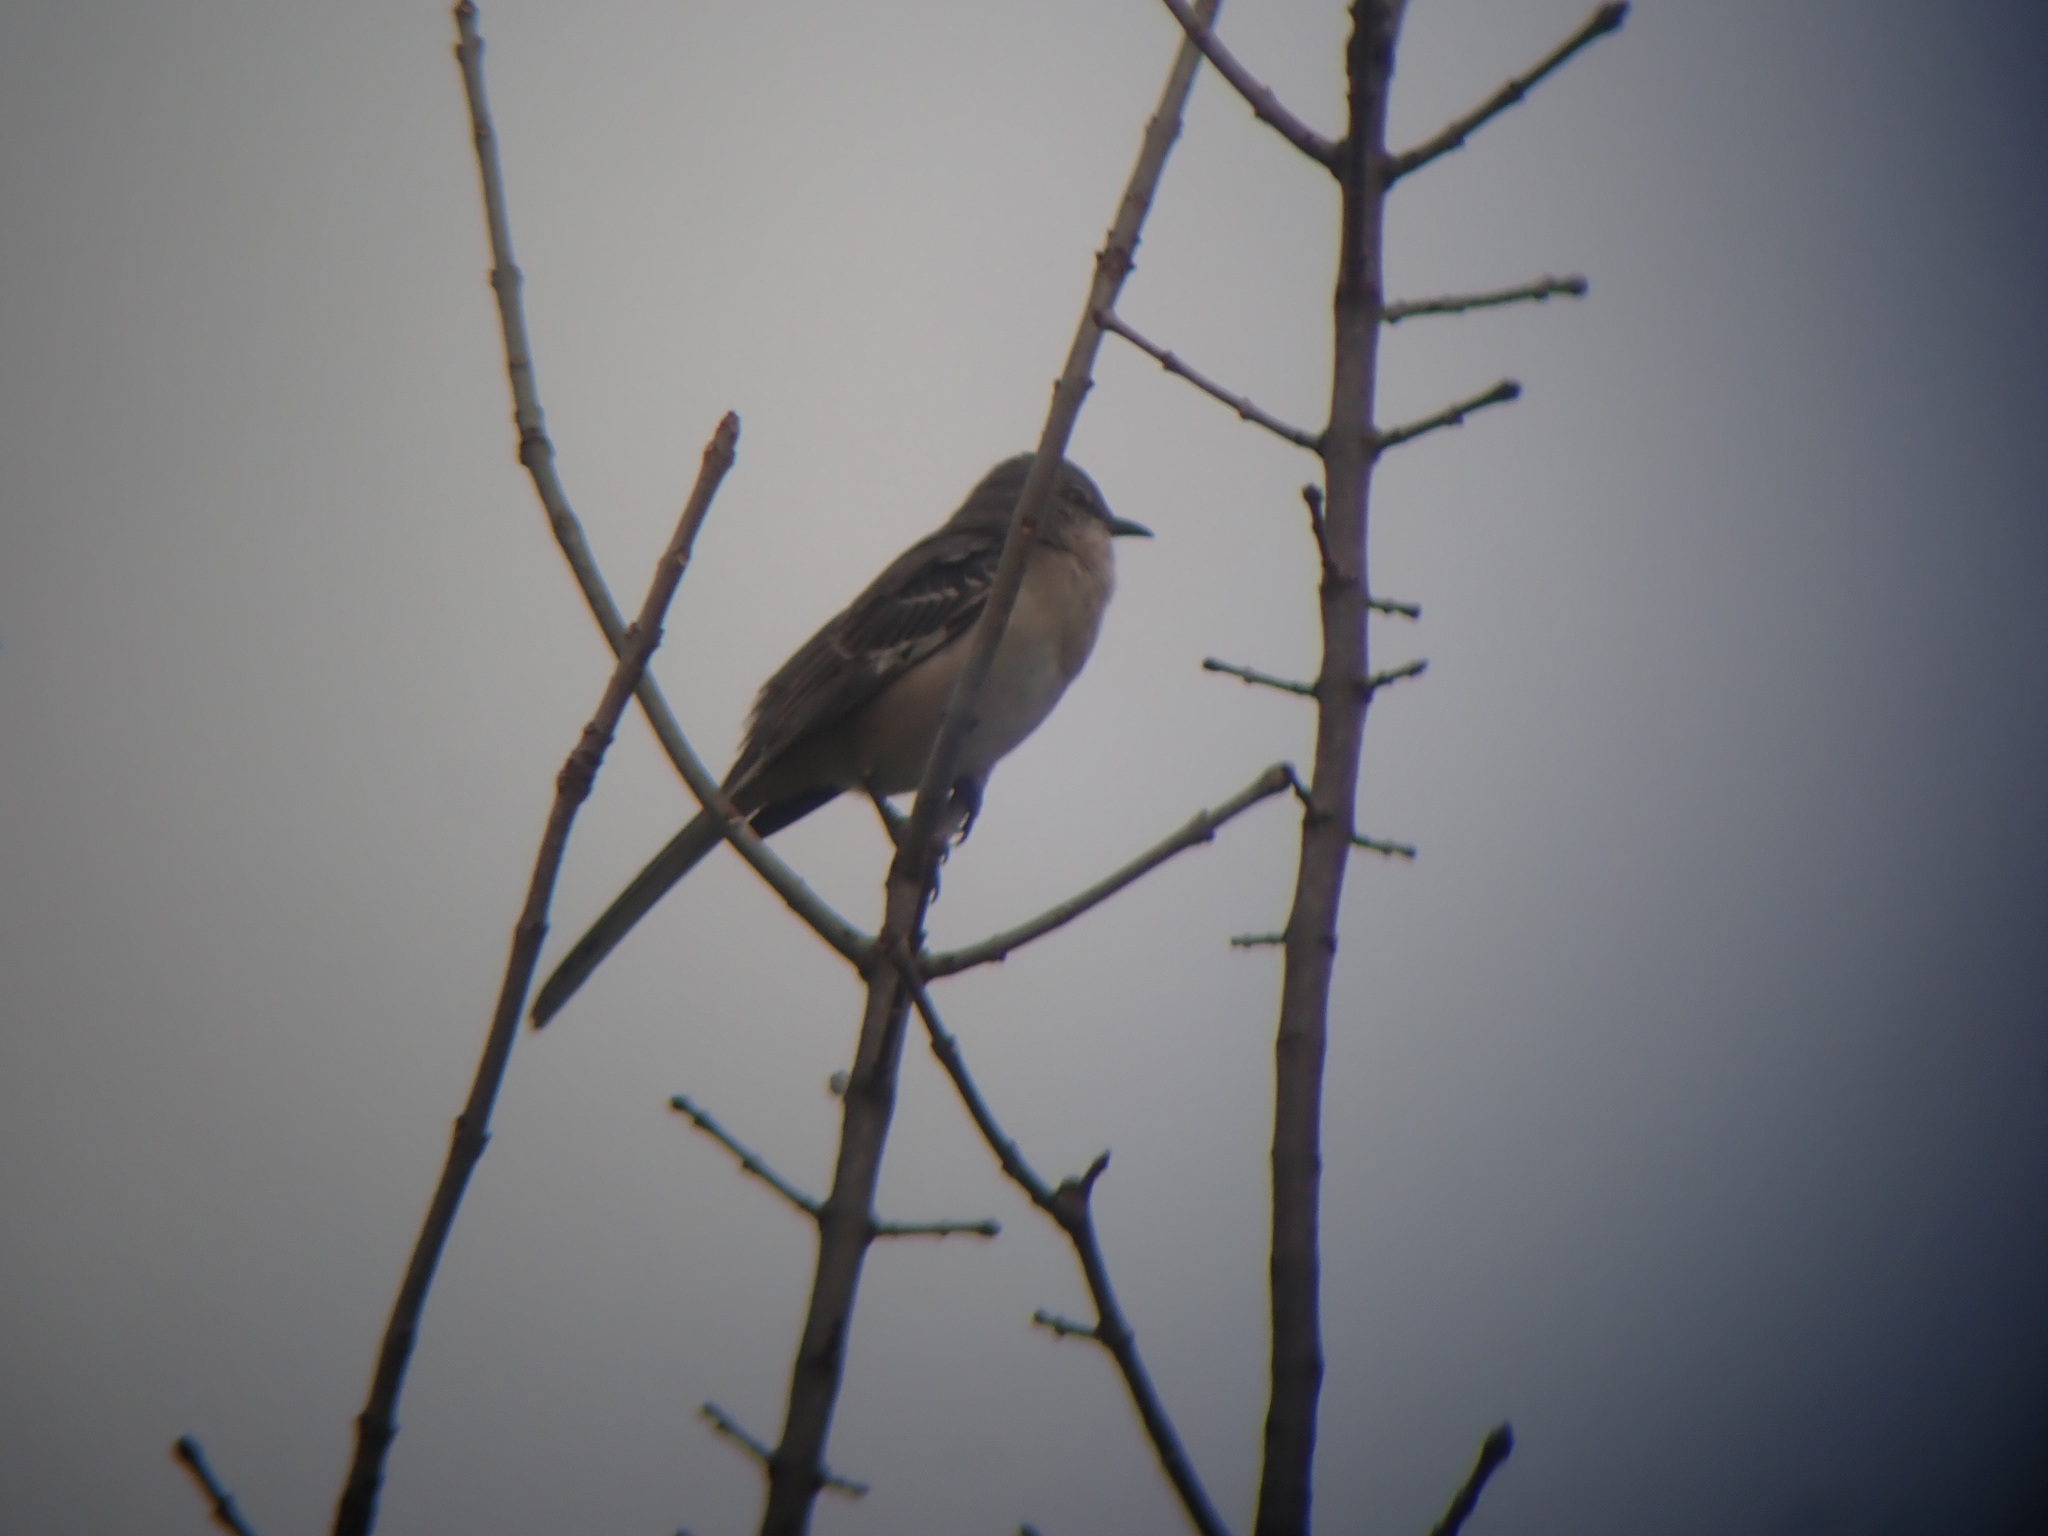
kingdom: Animalia
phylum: Chordata
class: Aves
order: Passeriformes
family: Mimidae
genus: Mimus
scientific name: Mimus polyglottos
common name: Northern mockingbird
